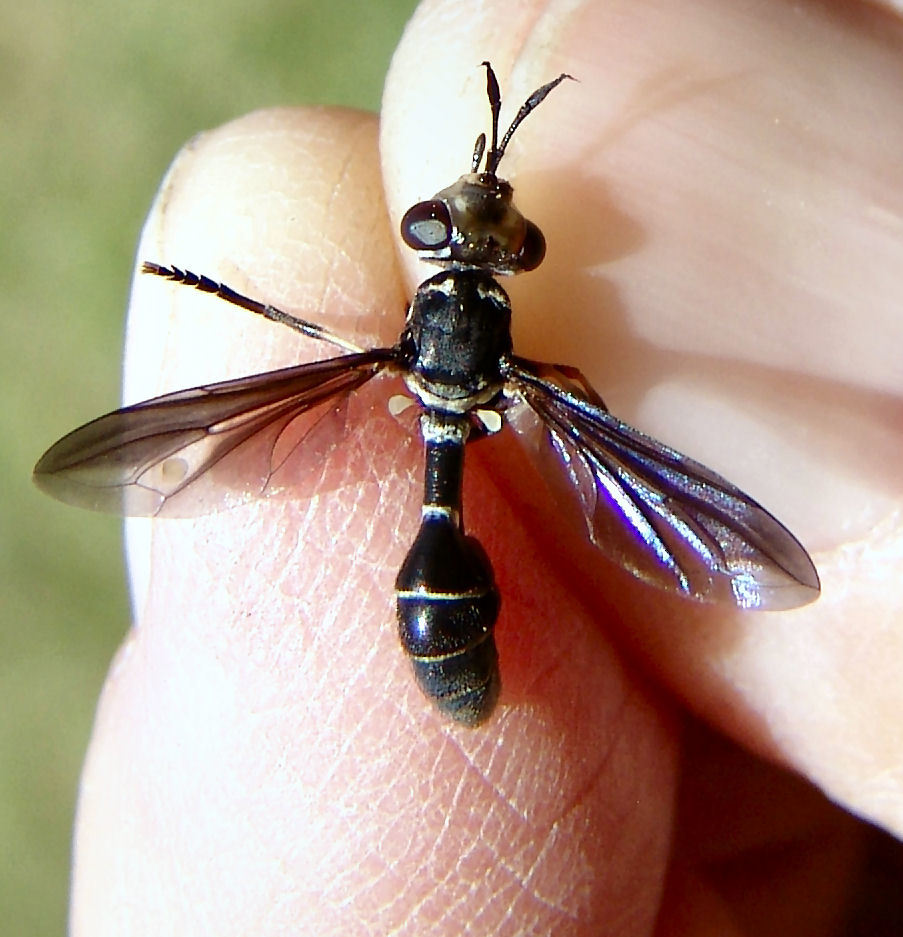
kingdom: Animalia
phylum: Arthropoda
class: Insecta
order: Diptera
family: Conopidae
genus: Physoconops
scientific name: Physoconops brachyrhynchus
